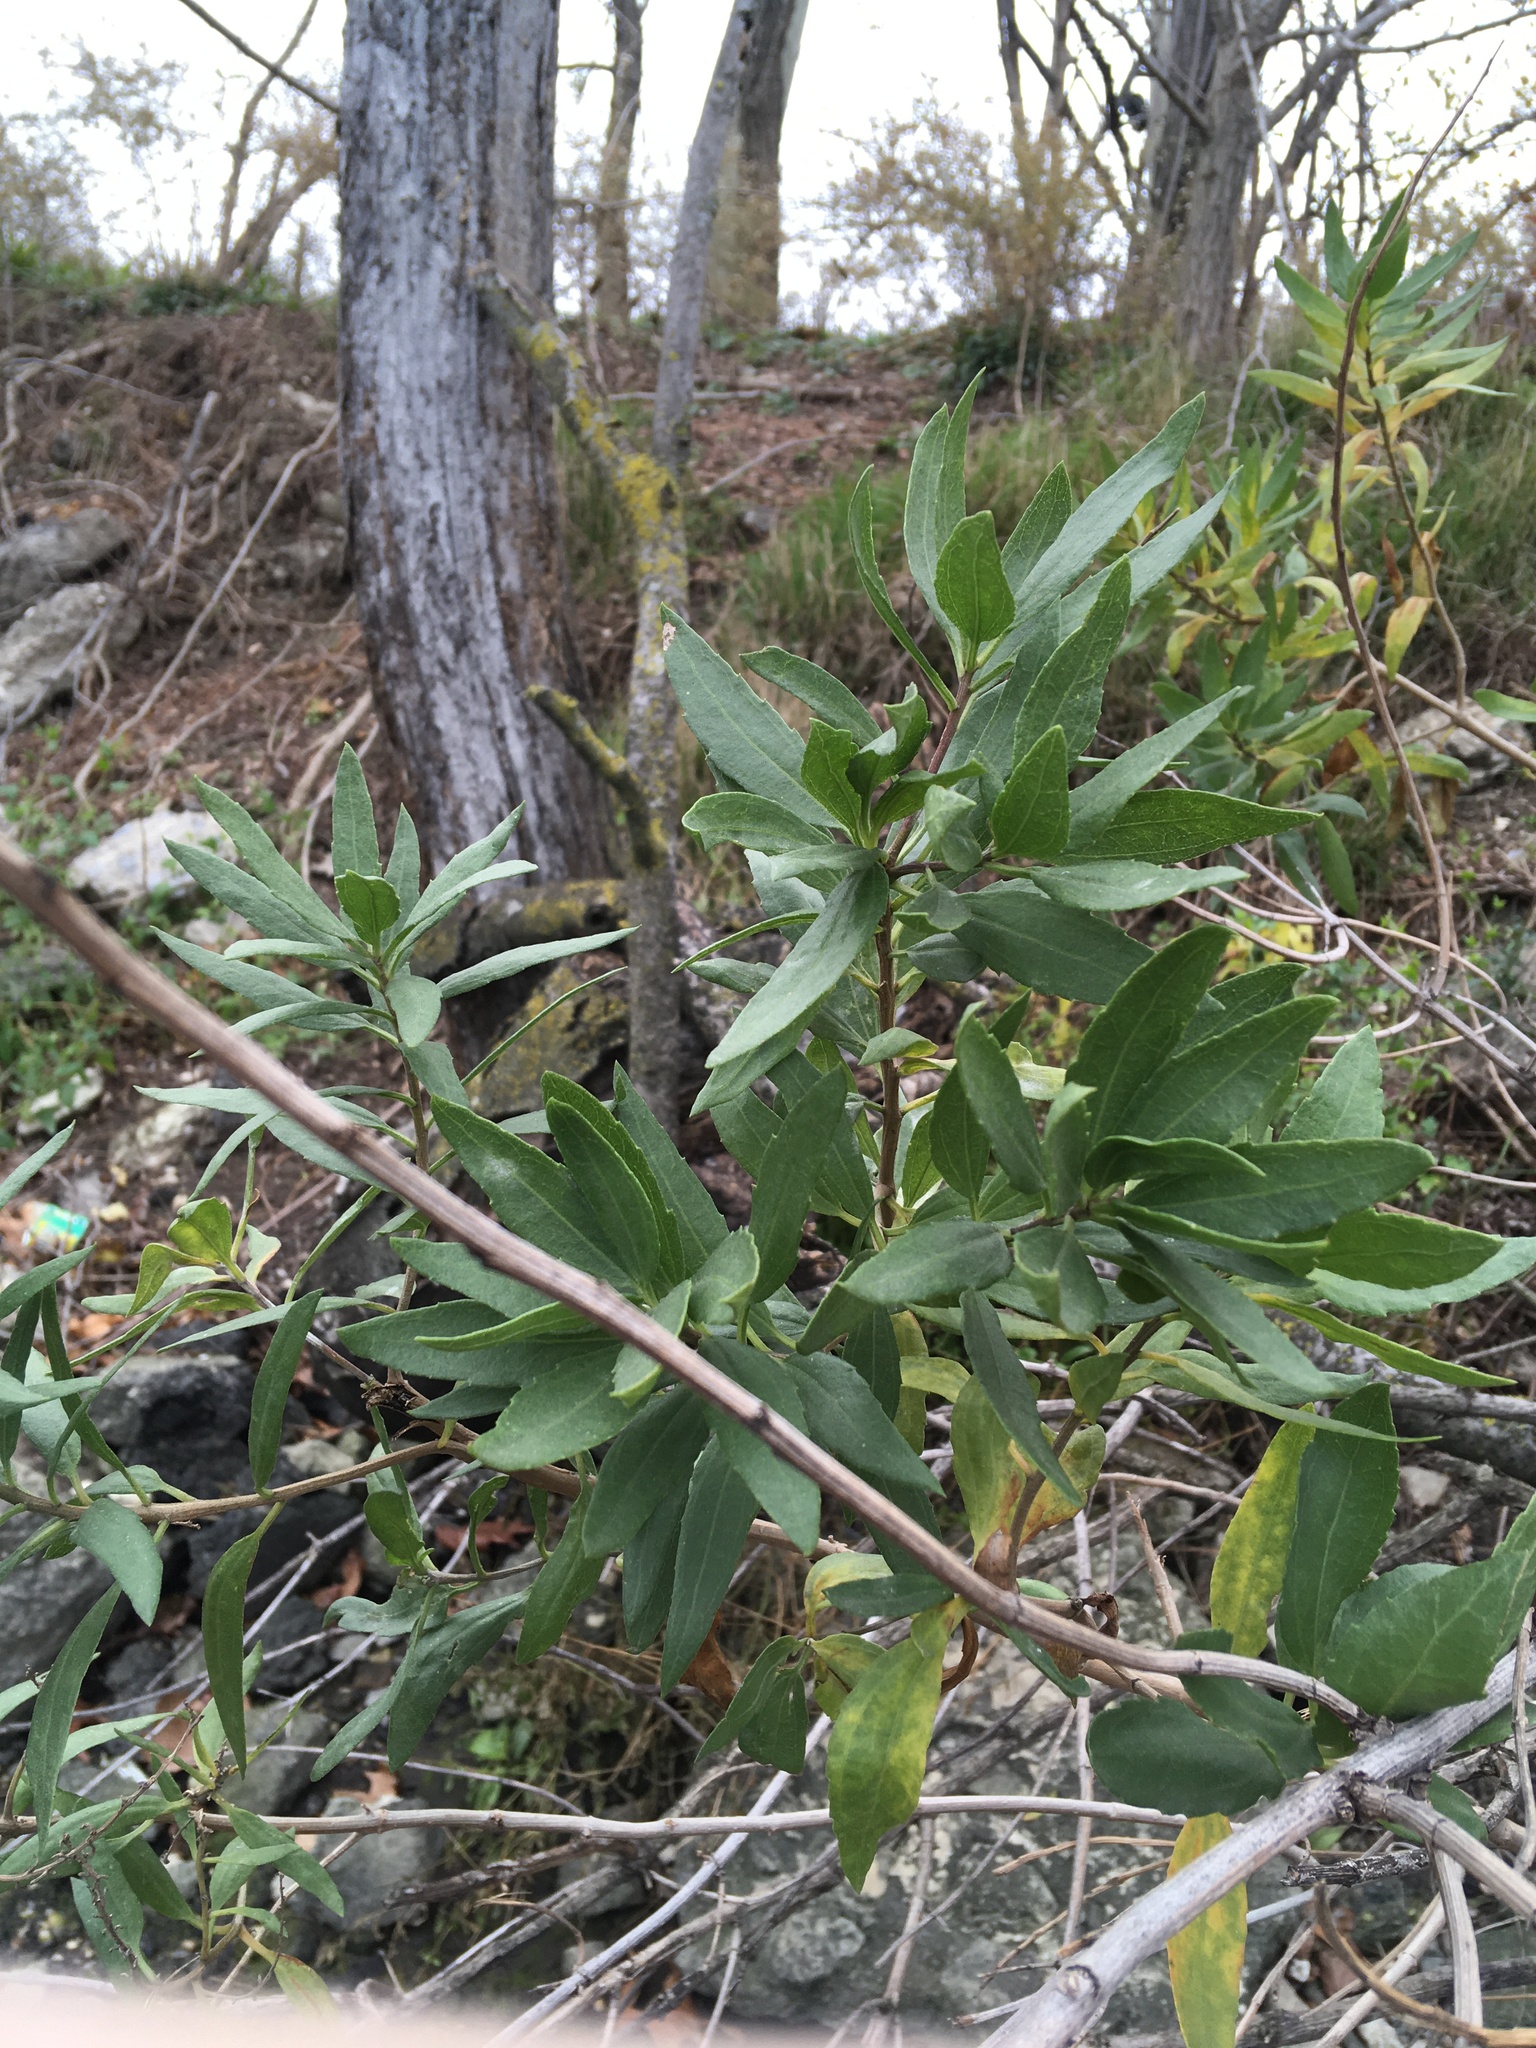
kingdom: Plantae
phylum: Tracheophyta
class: Magnoliopsida
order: Asterales
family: Asteraceae
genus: Iva
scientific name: Iva frutescens
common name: Big-leaved marsh-elder
